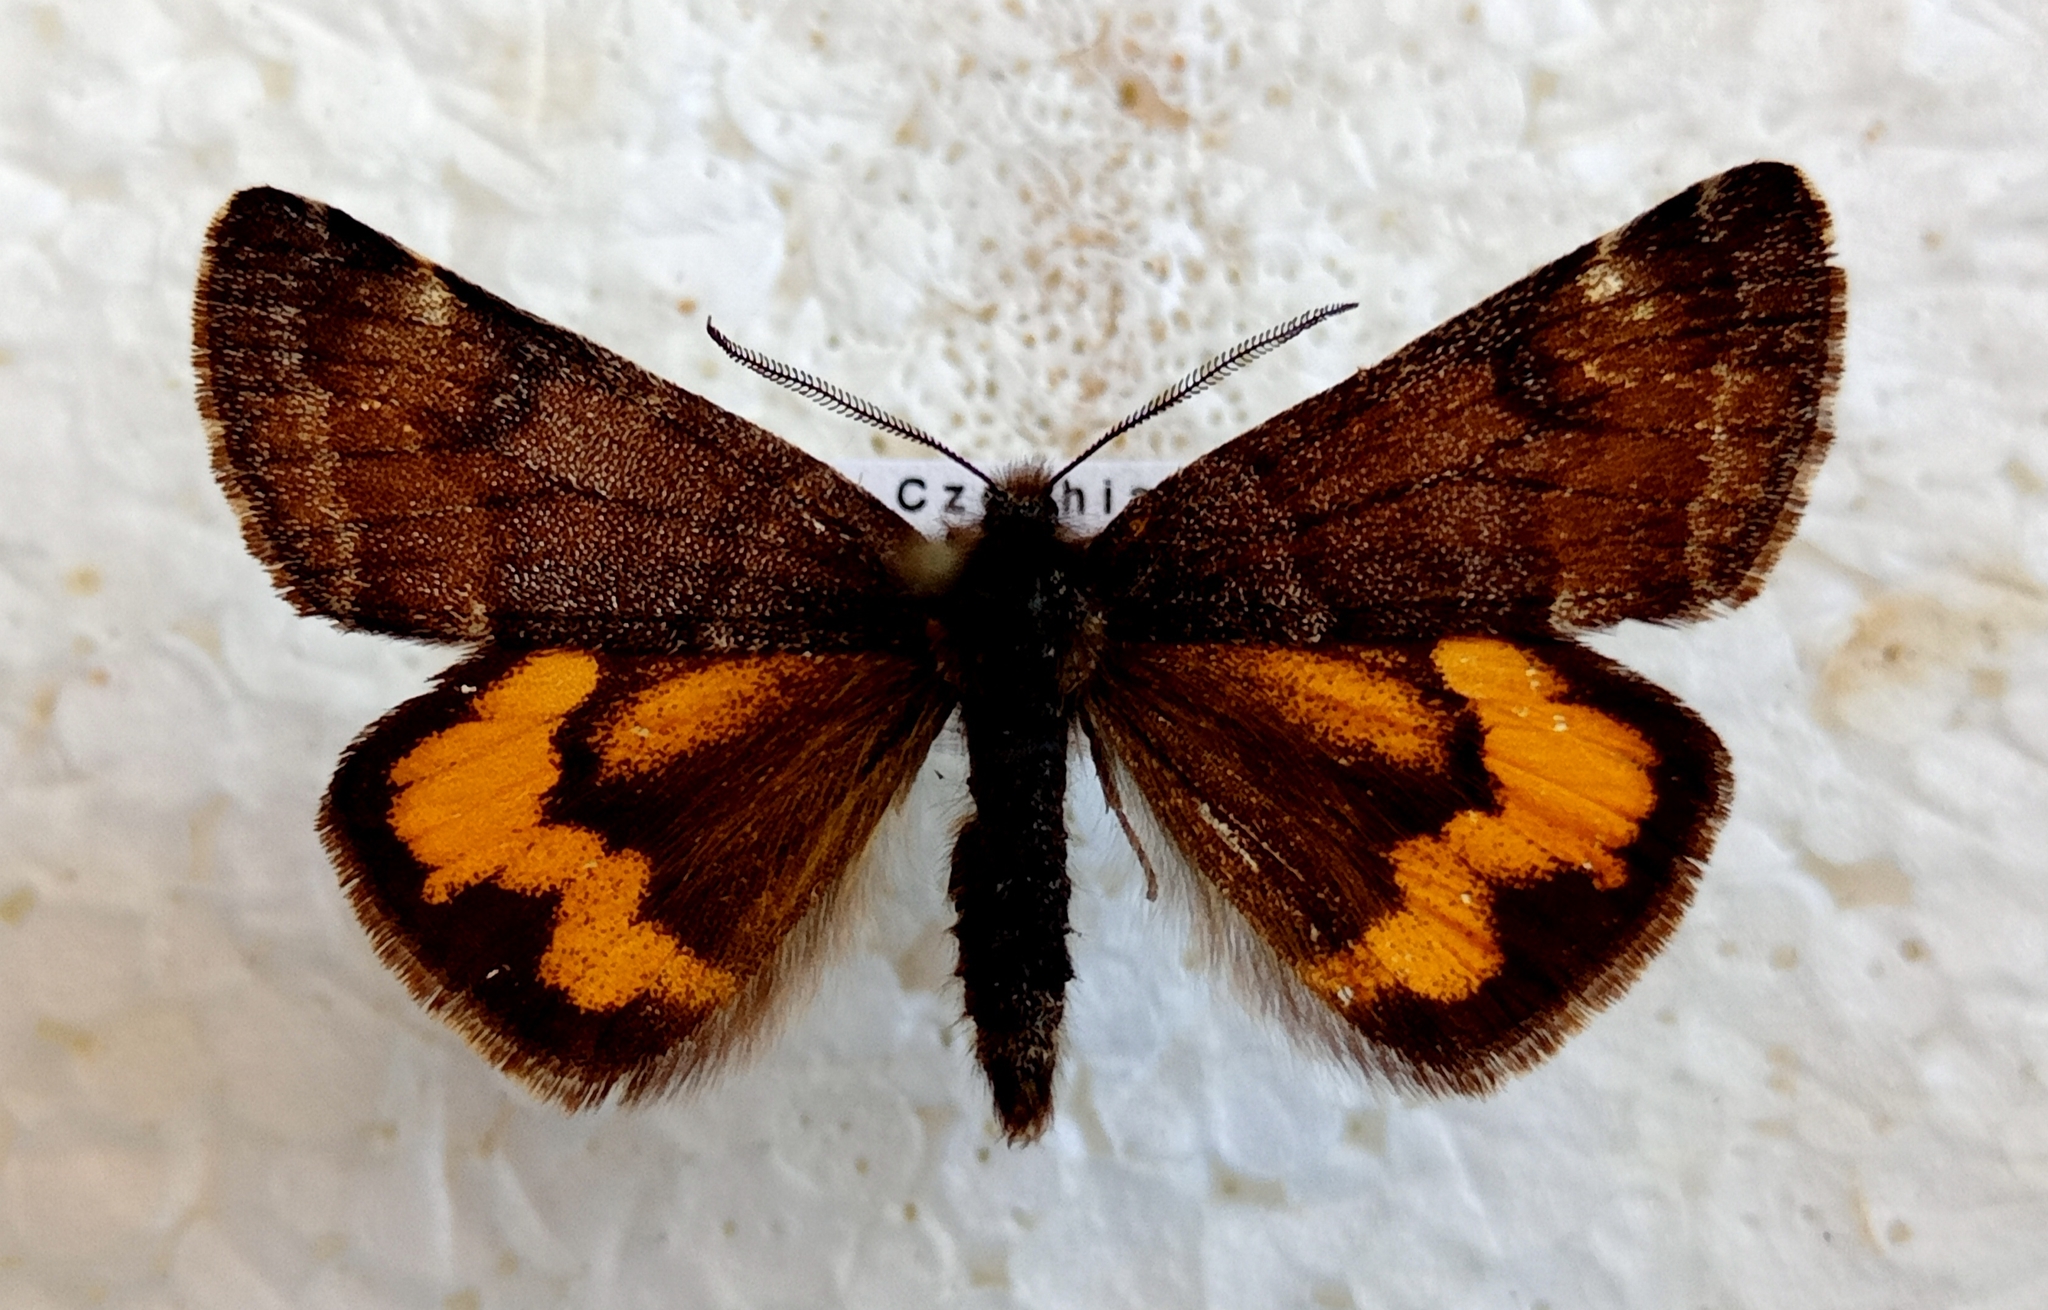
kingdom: Animalia
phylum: Arthropoda
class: Insecta
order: Lepidoptera
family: Geometridae
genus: Archiearis
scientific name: Archiearis notha
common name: Light orange underwing
